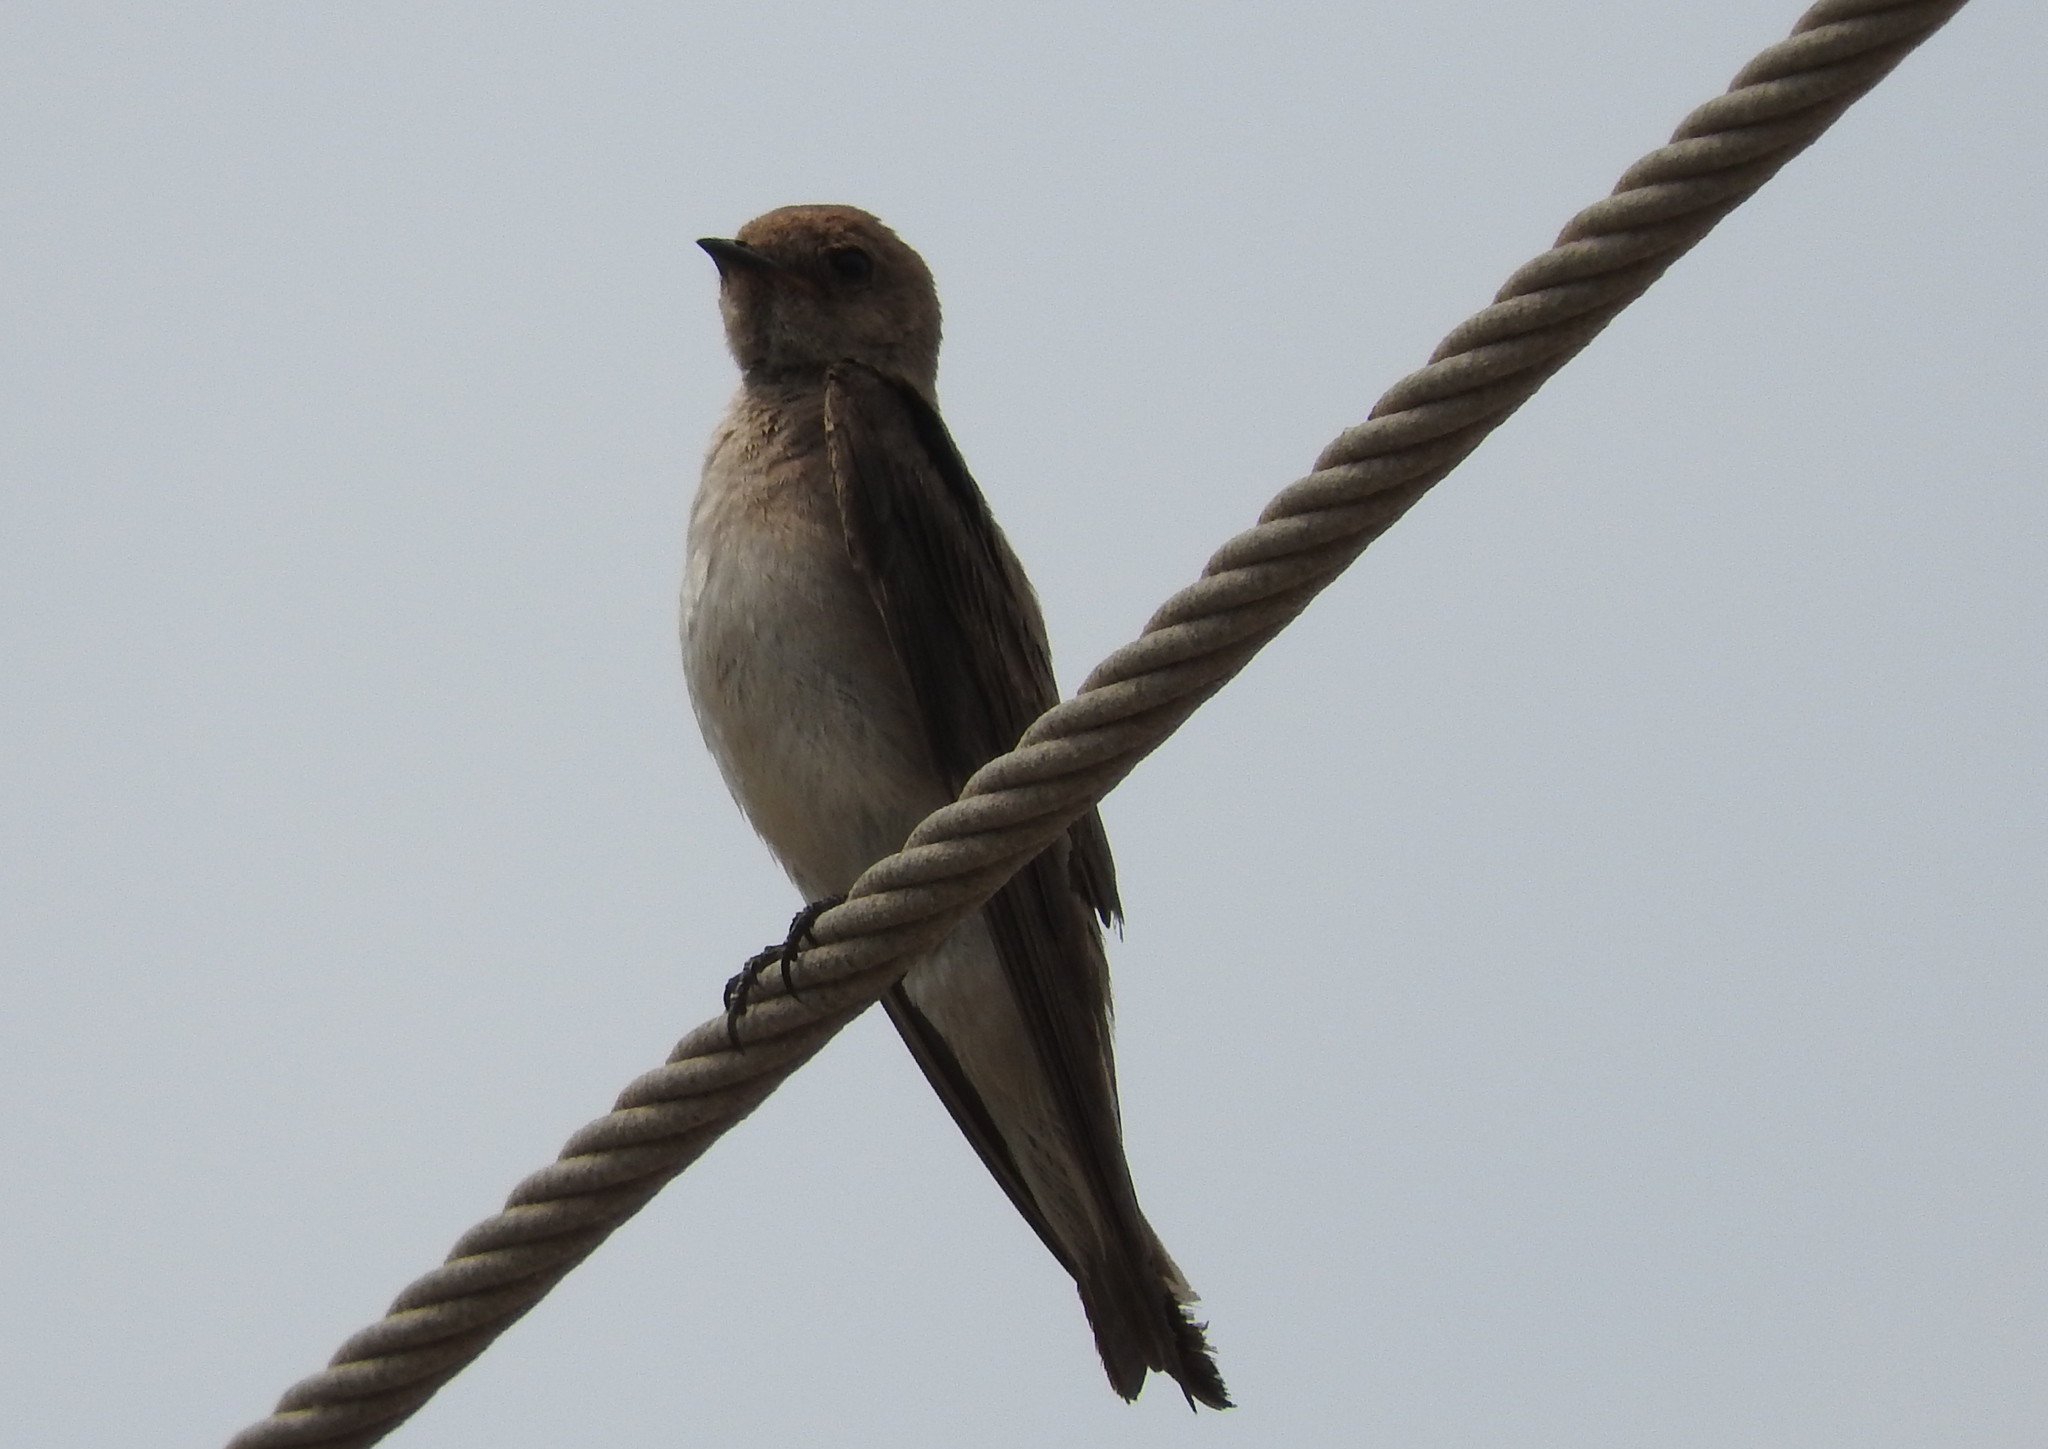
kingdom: Animalia
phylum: Chordata
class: Aves
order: Passeriformes
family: Hirundinidae
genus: Stelgidopteryx
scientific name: Stelgidopteryx serripennis
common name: Northern rough-winged swallow
